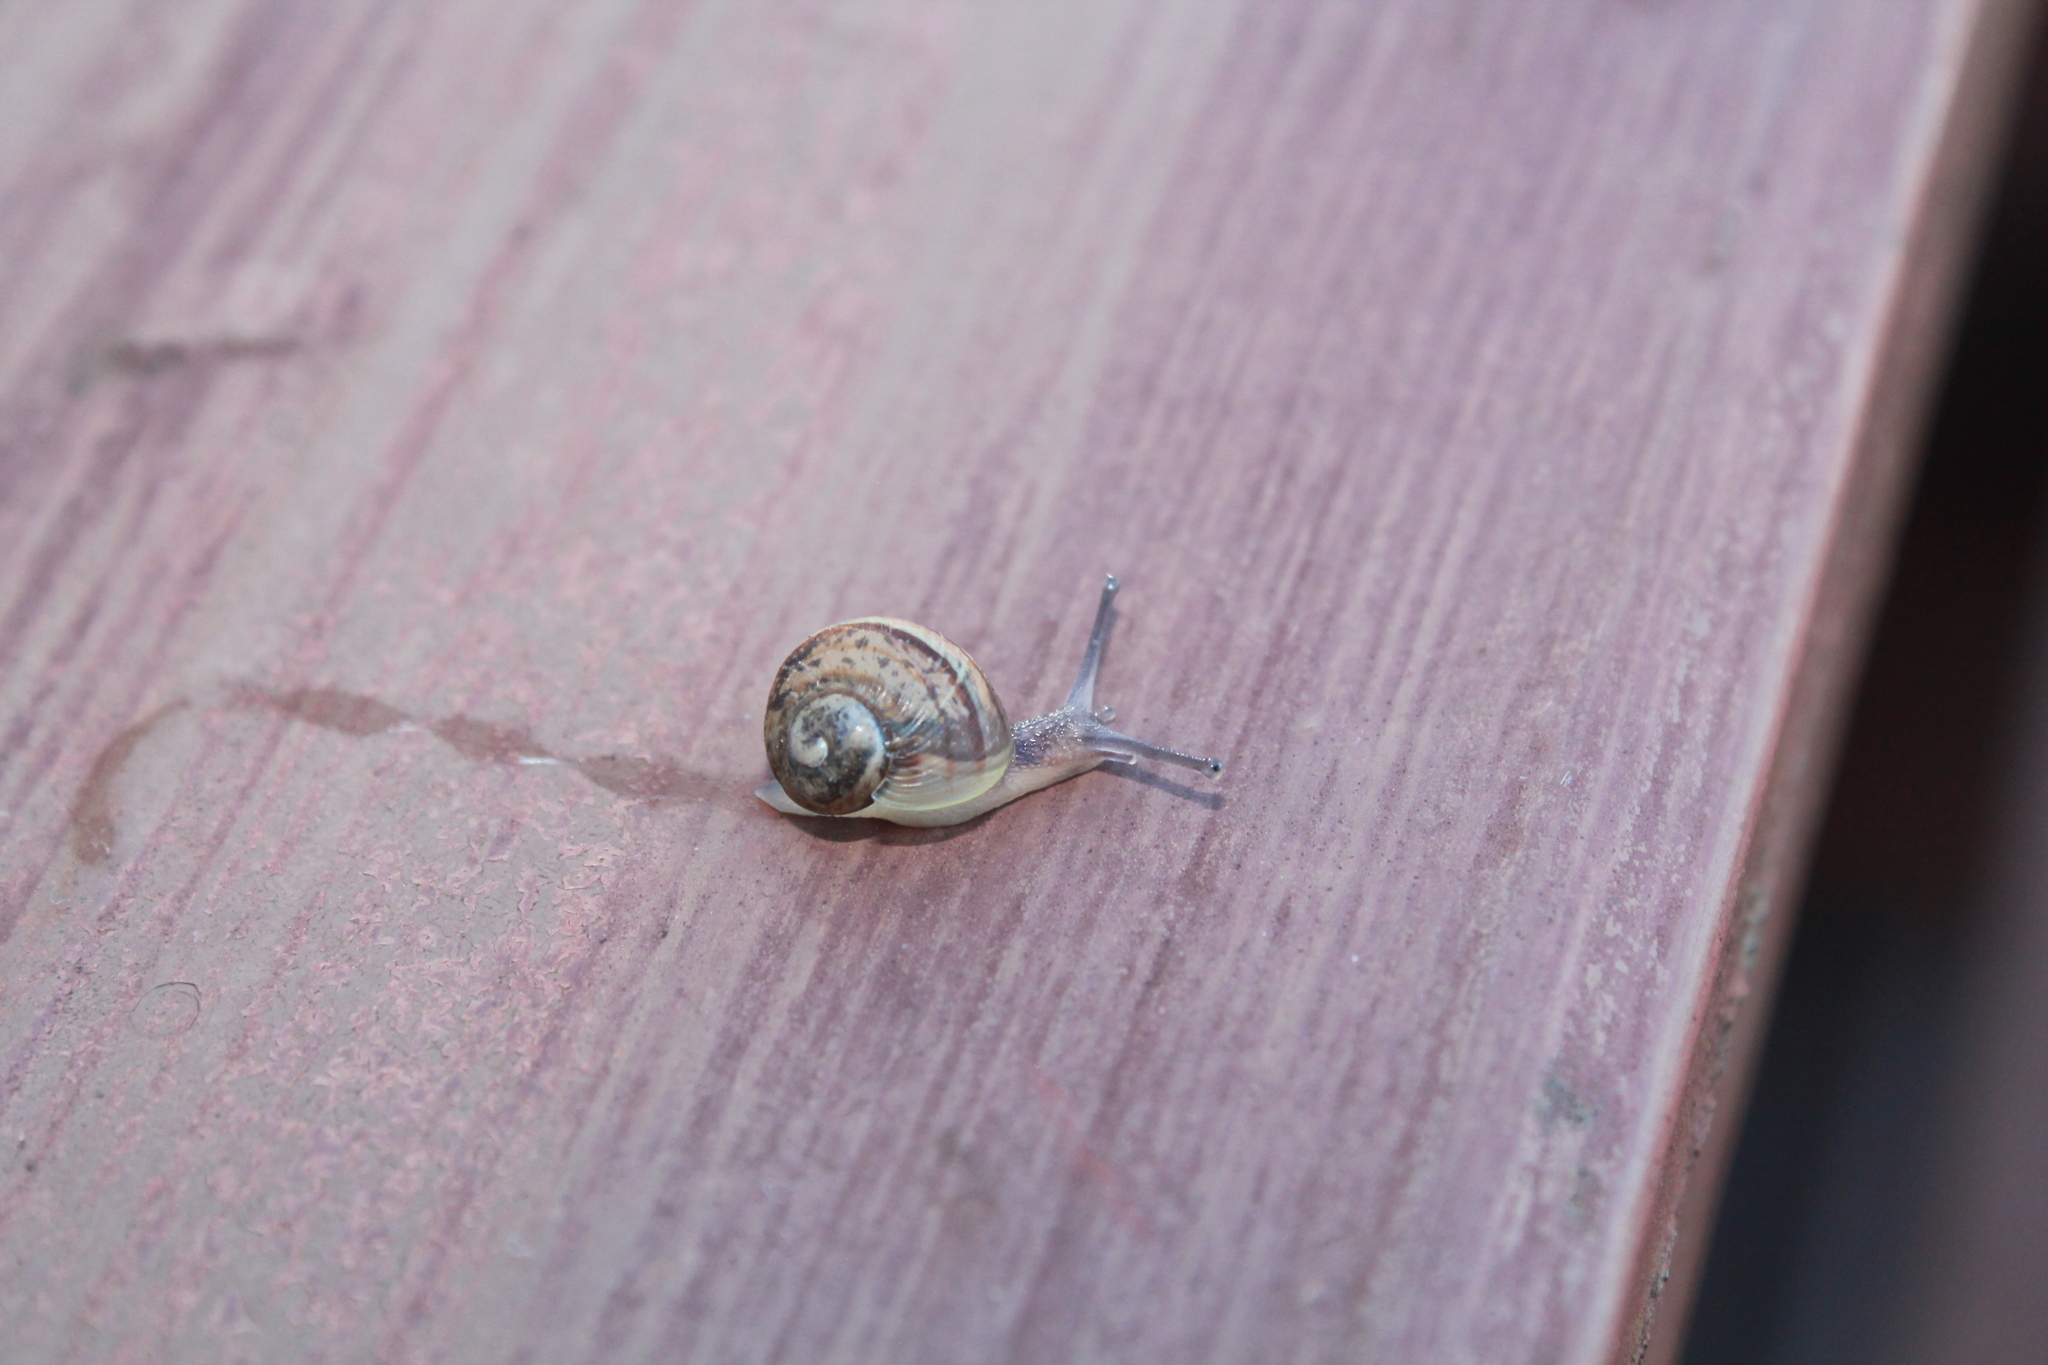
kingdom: Animalia
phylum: Mollusca
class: Gastropoda
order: Stylommatophora
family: Helicidae
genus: Cornu
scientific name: Cornu aspersum
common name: Brown garden snail
